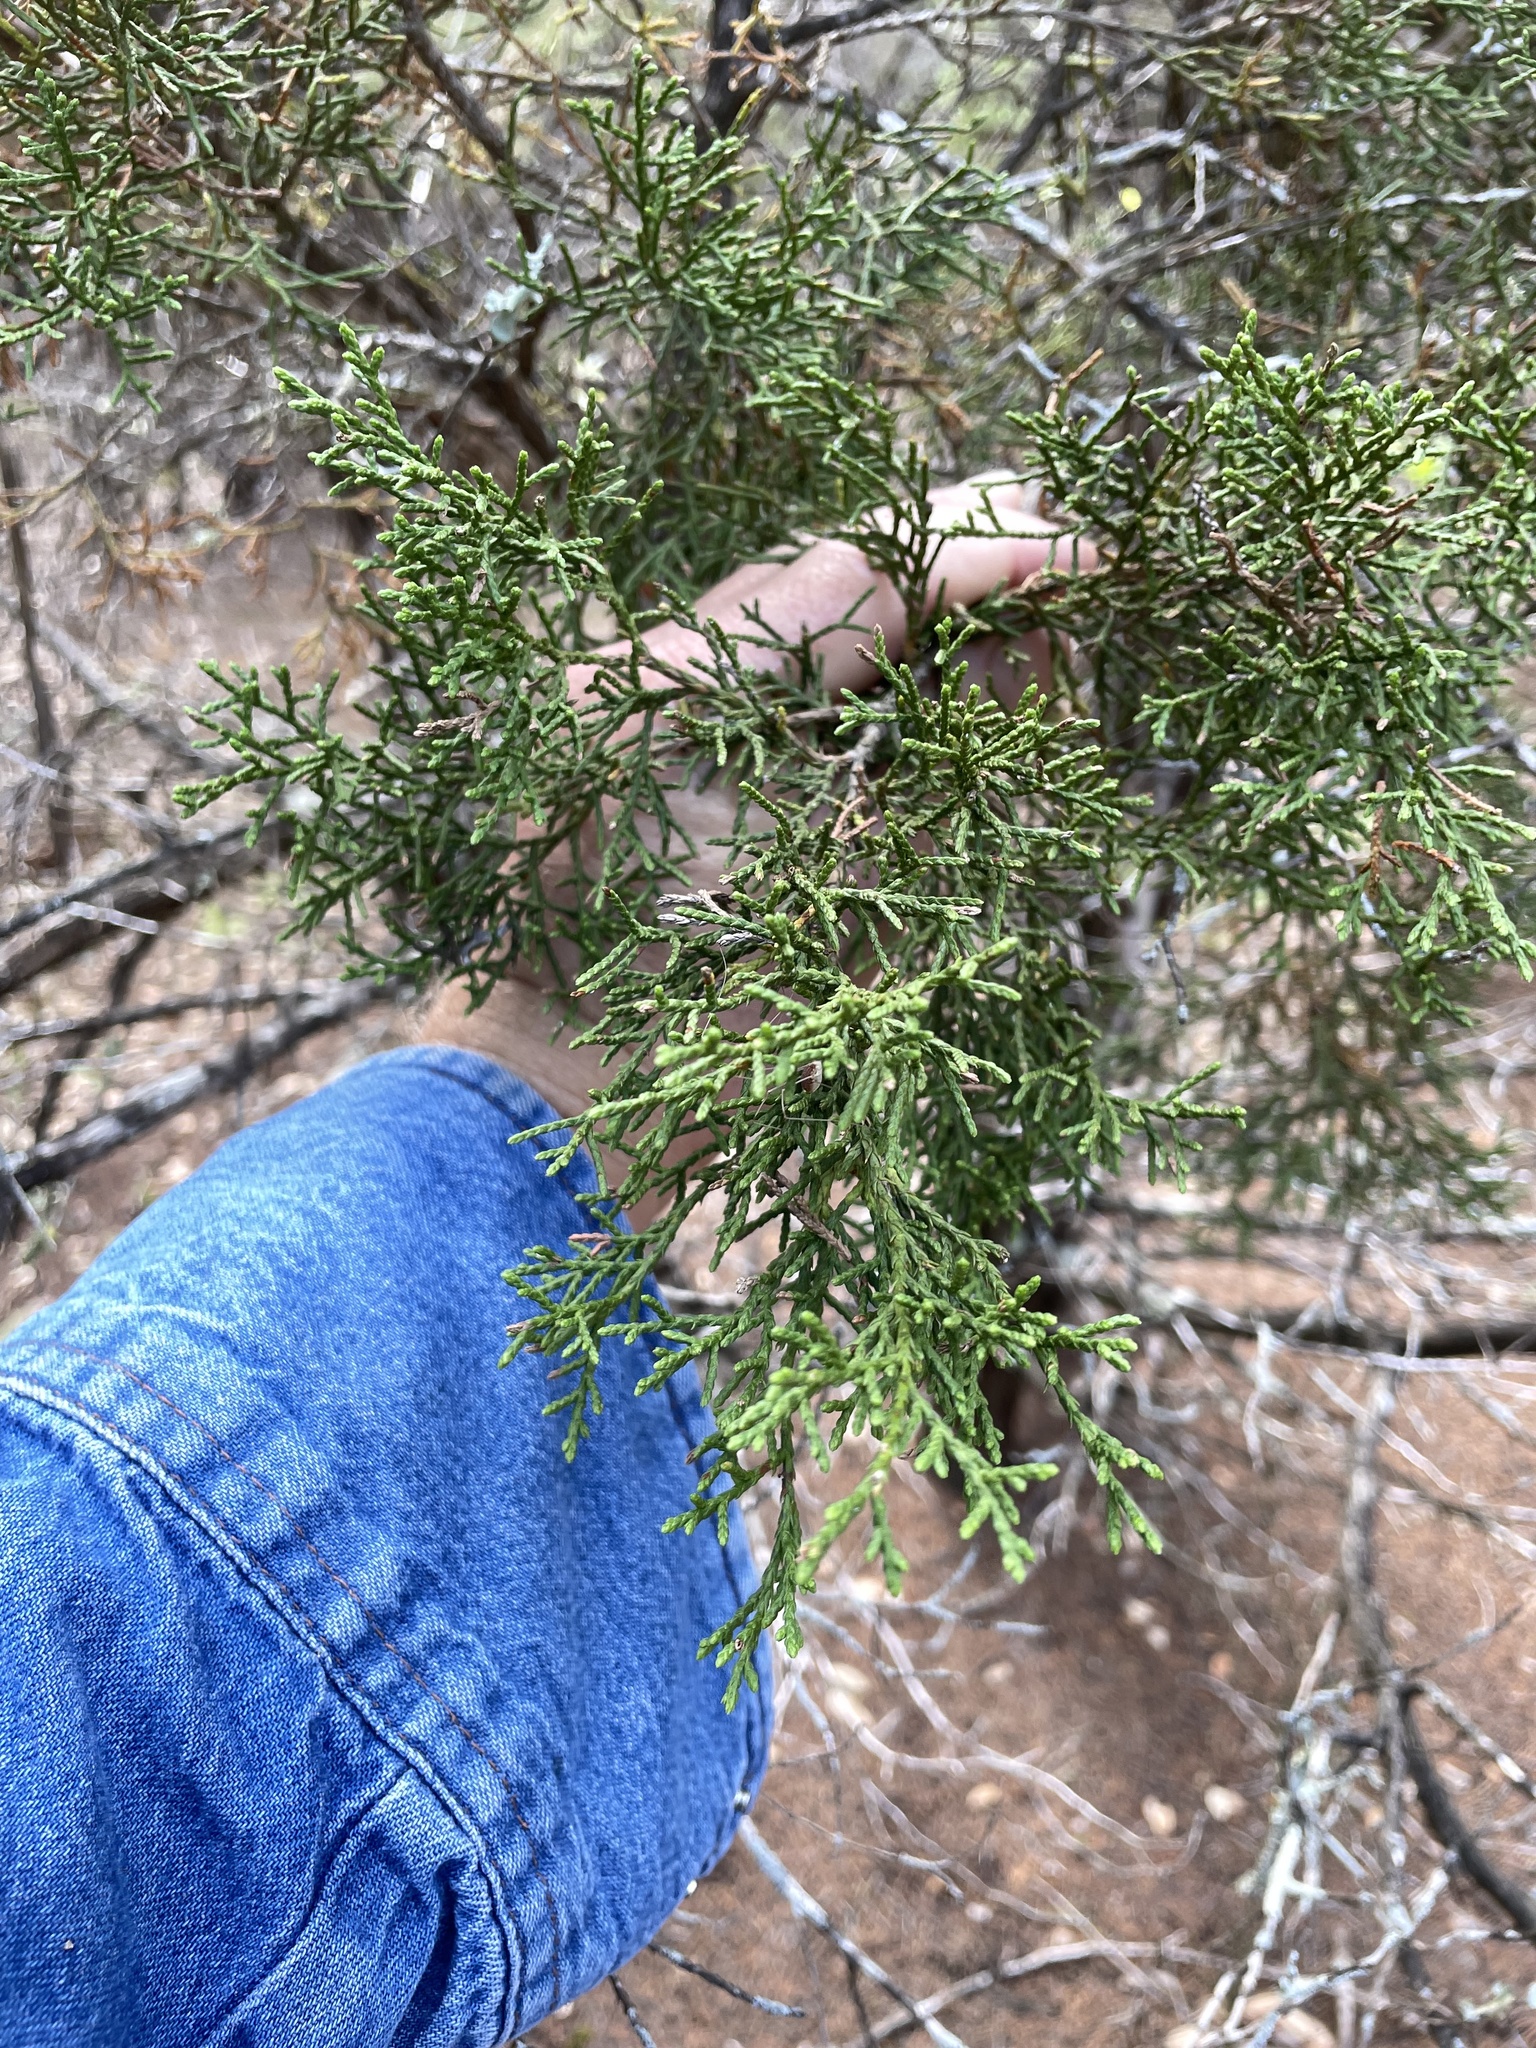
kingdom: Plantae
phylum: Tracheophyta
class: Pinopsida
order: Pinales
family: Cupressaceae
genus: Juniperus
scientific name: Juniperus ashei
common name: Mexican juniper
